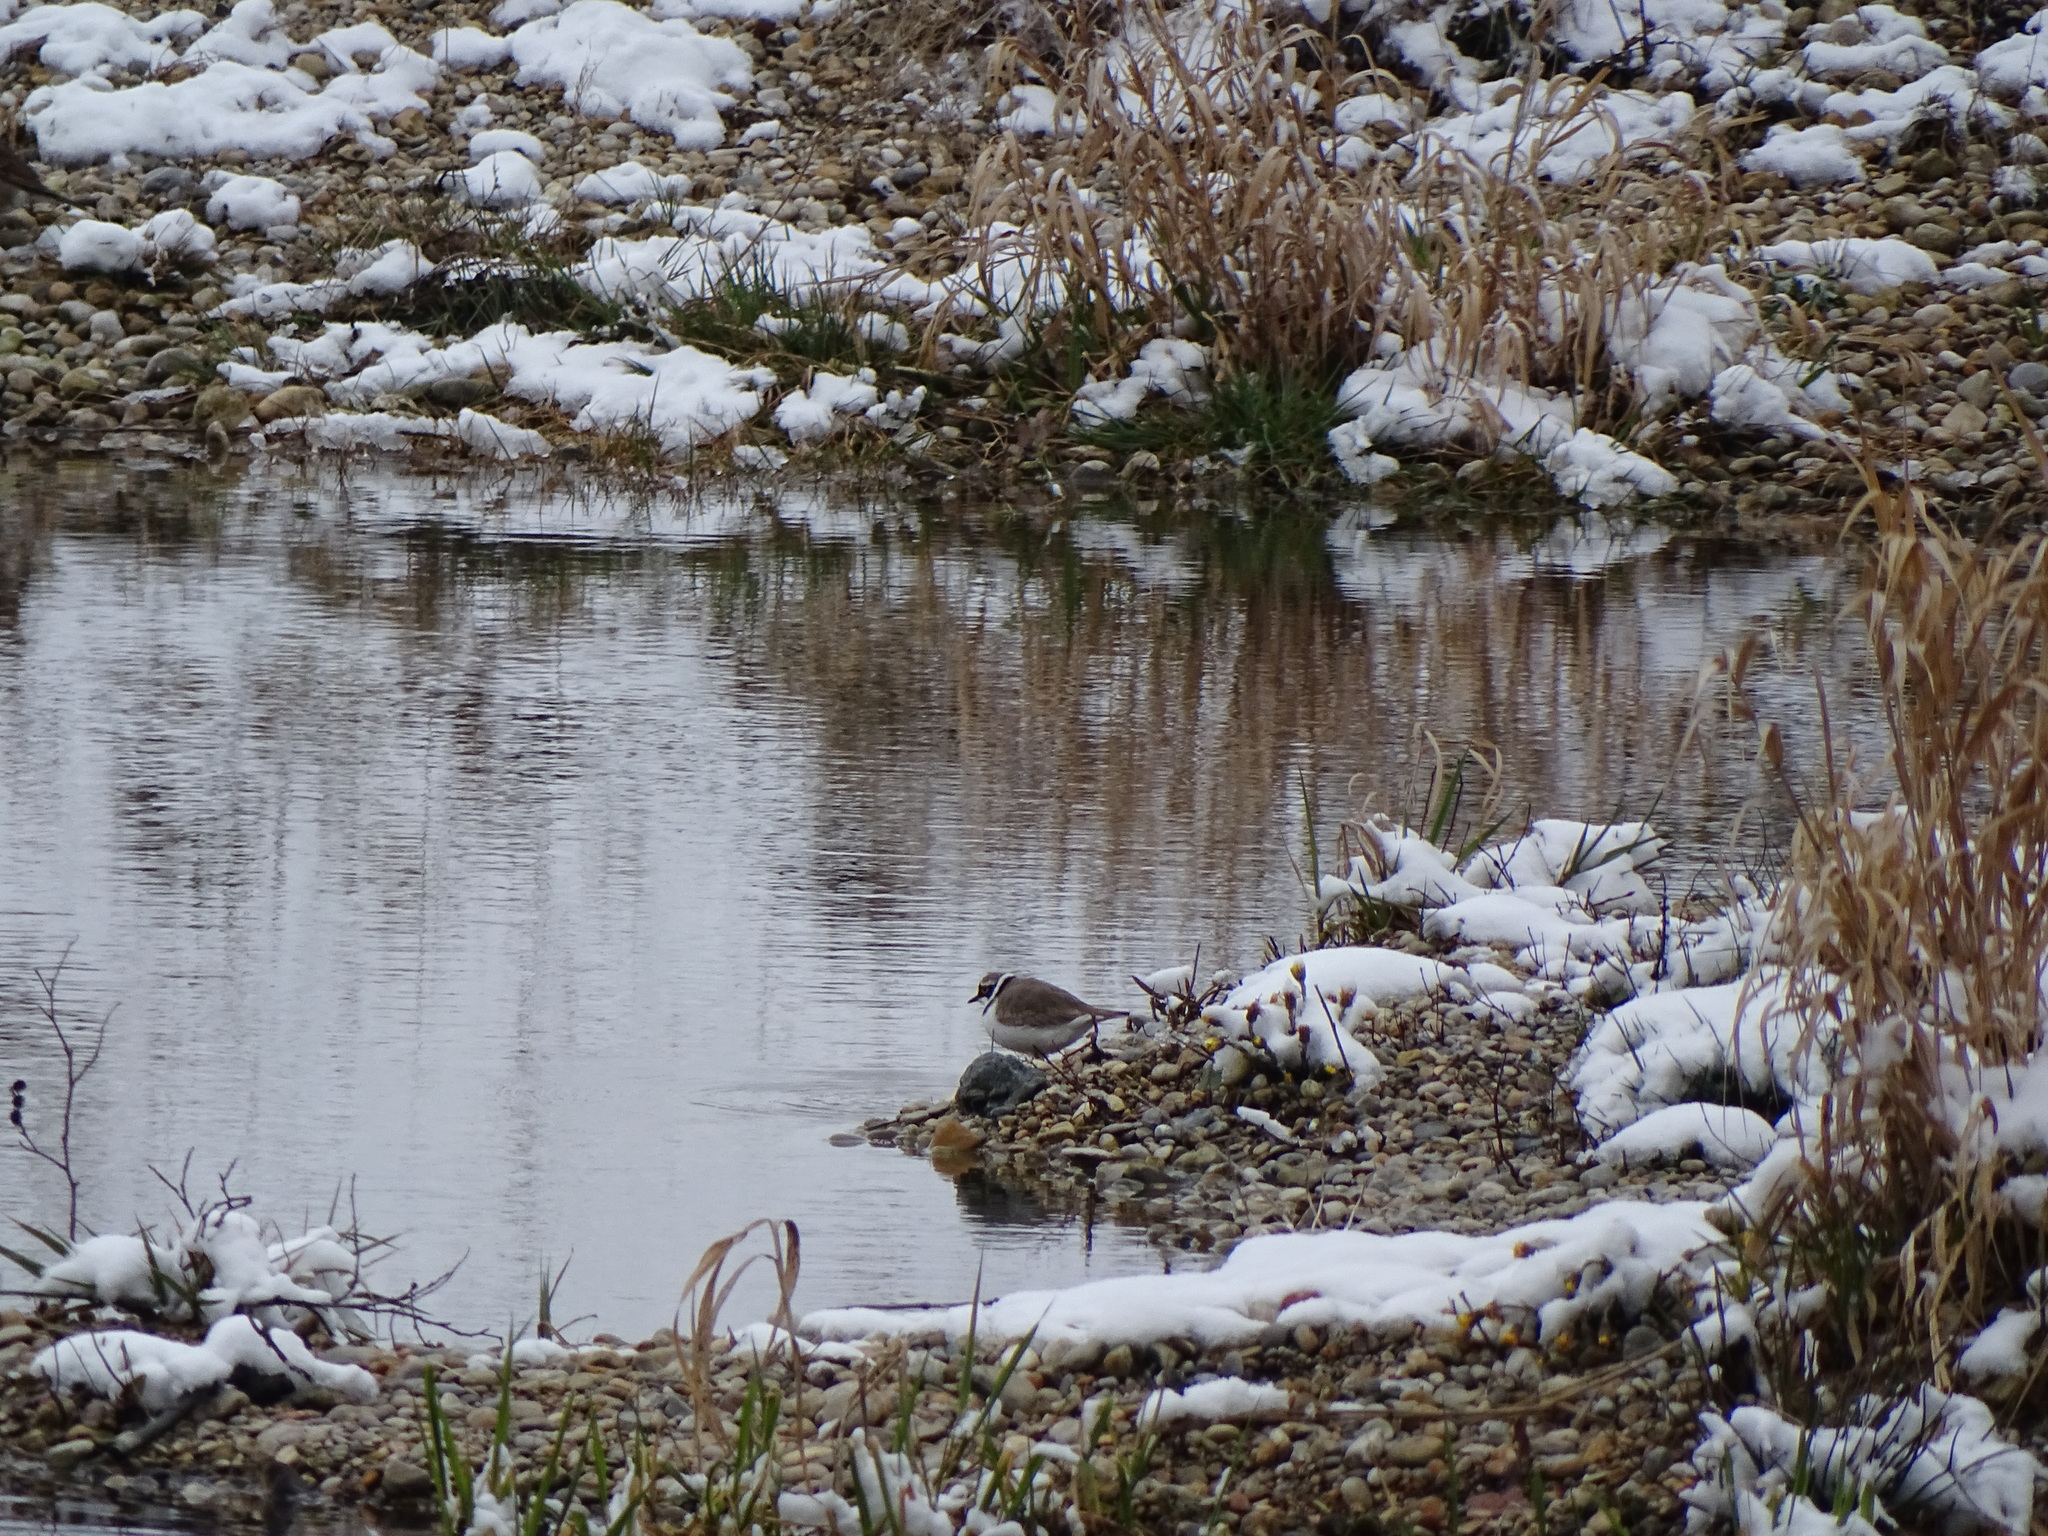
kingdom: Animalia
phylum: Chordata
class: Aves
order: Charadriiformes
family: Charadriidae
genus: Charadrius
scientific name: Charadrius dubius
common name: Little ringed plover
